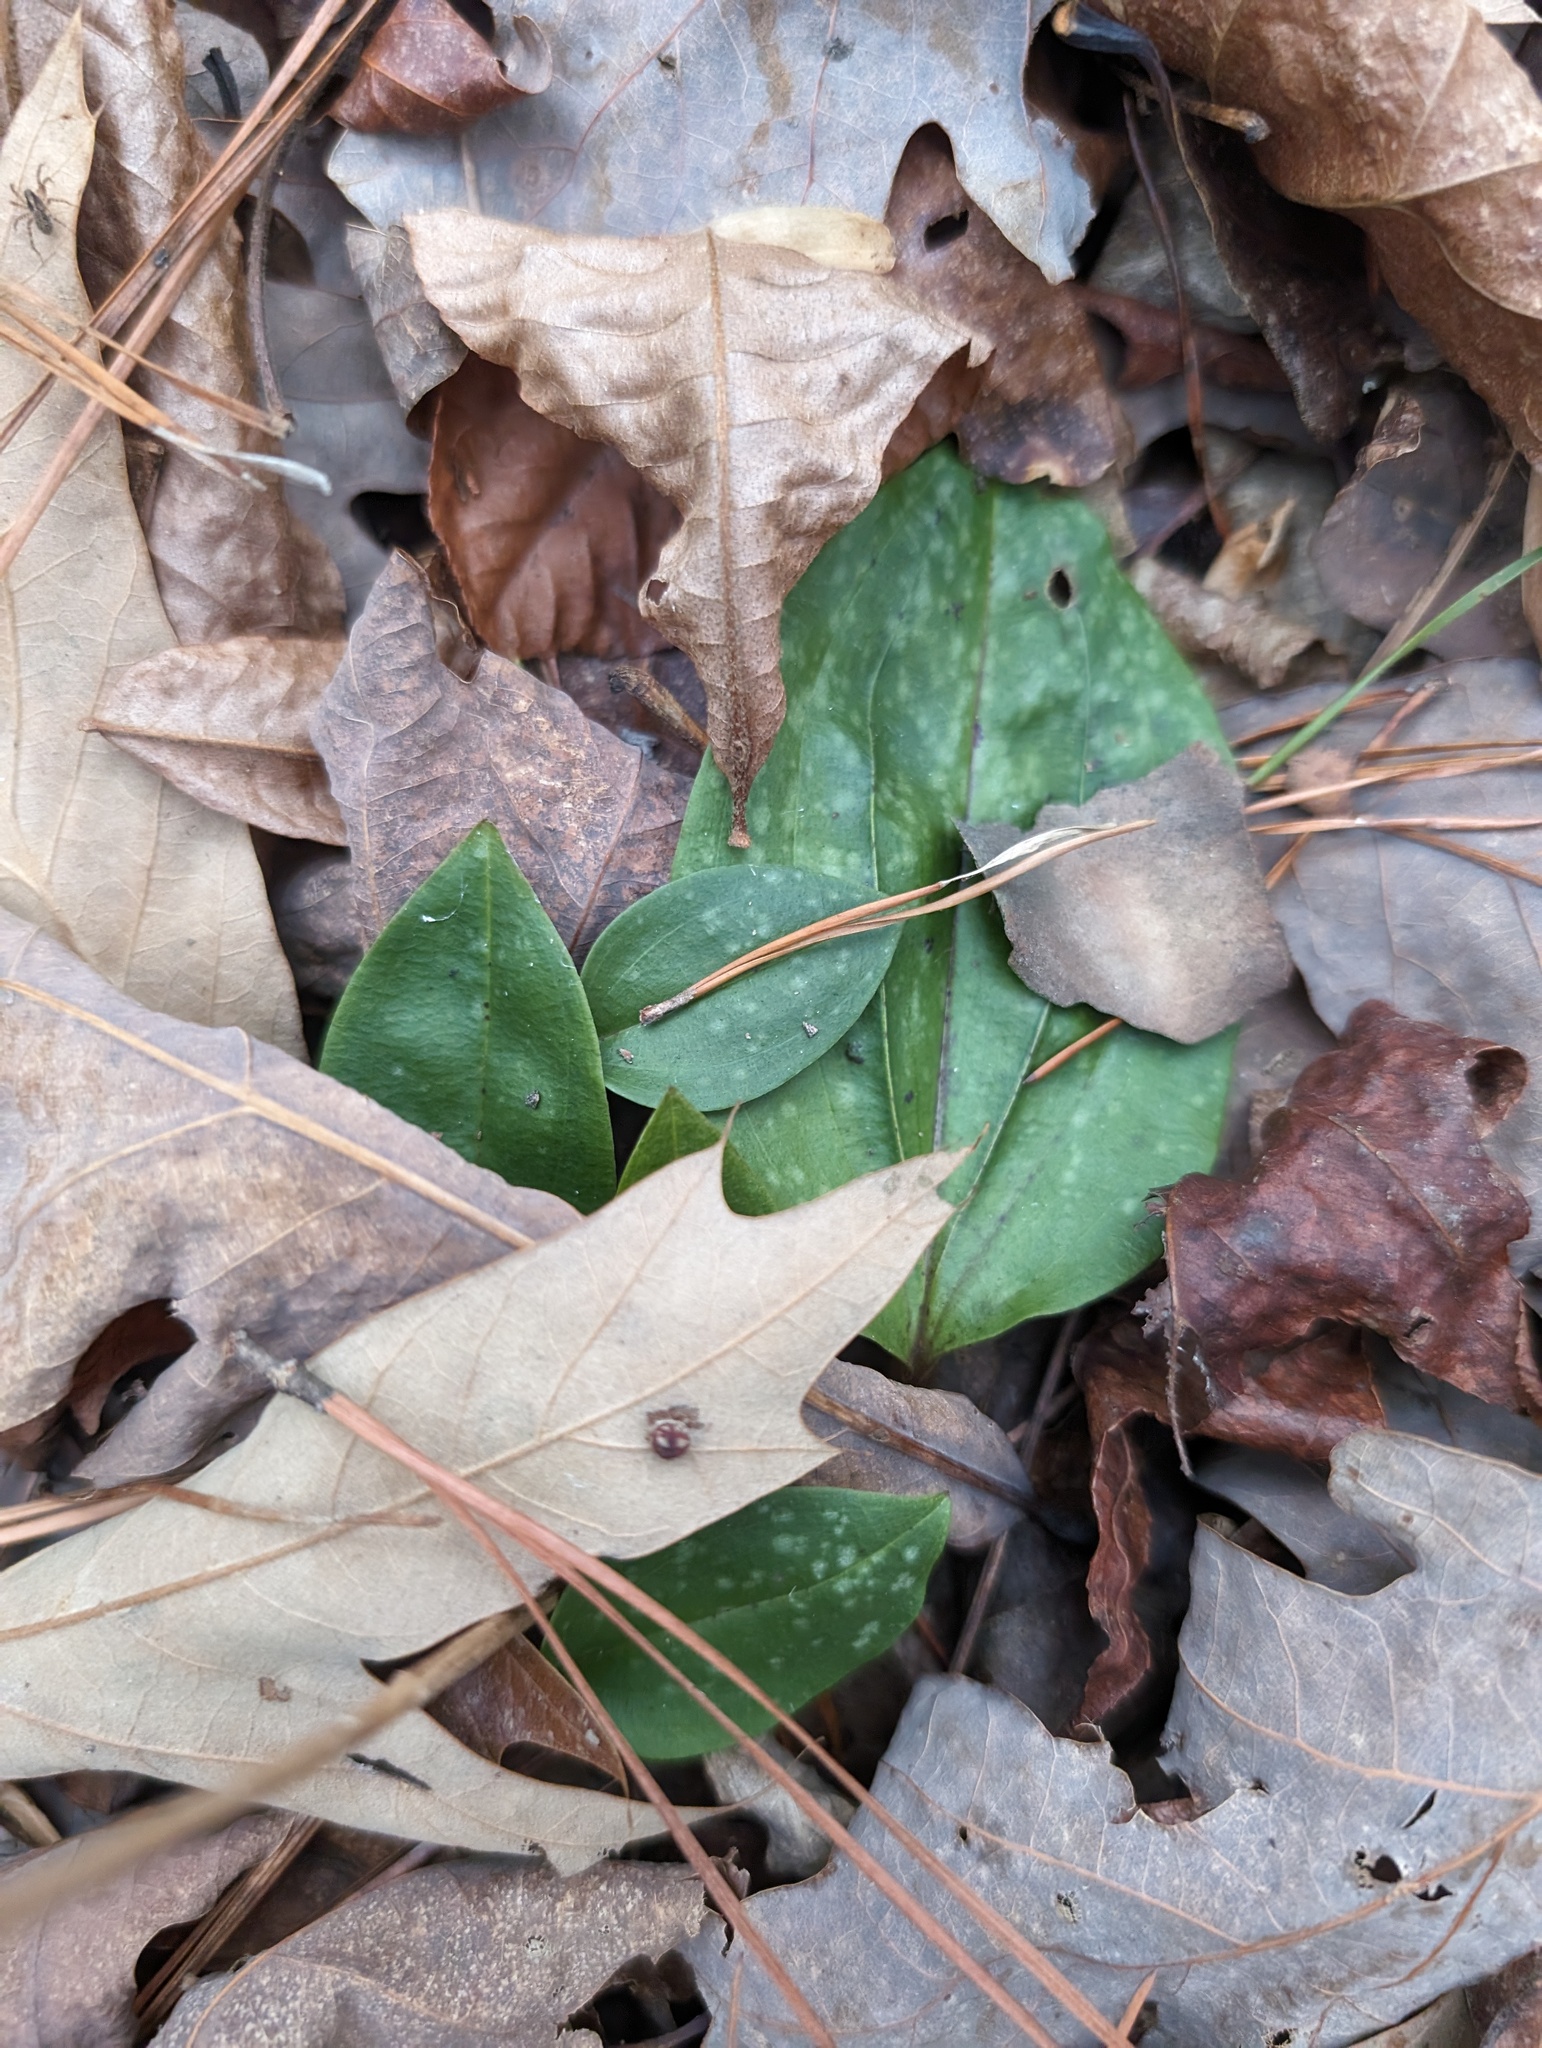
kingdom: Plantae
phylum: Tracheophyta
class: Liliopsida
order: Asparagales
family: Orchidaceae
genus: Tipularia
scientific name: Tipularia discolor
